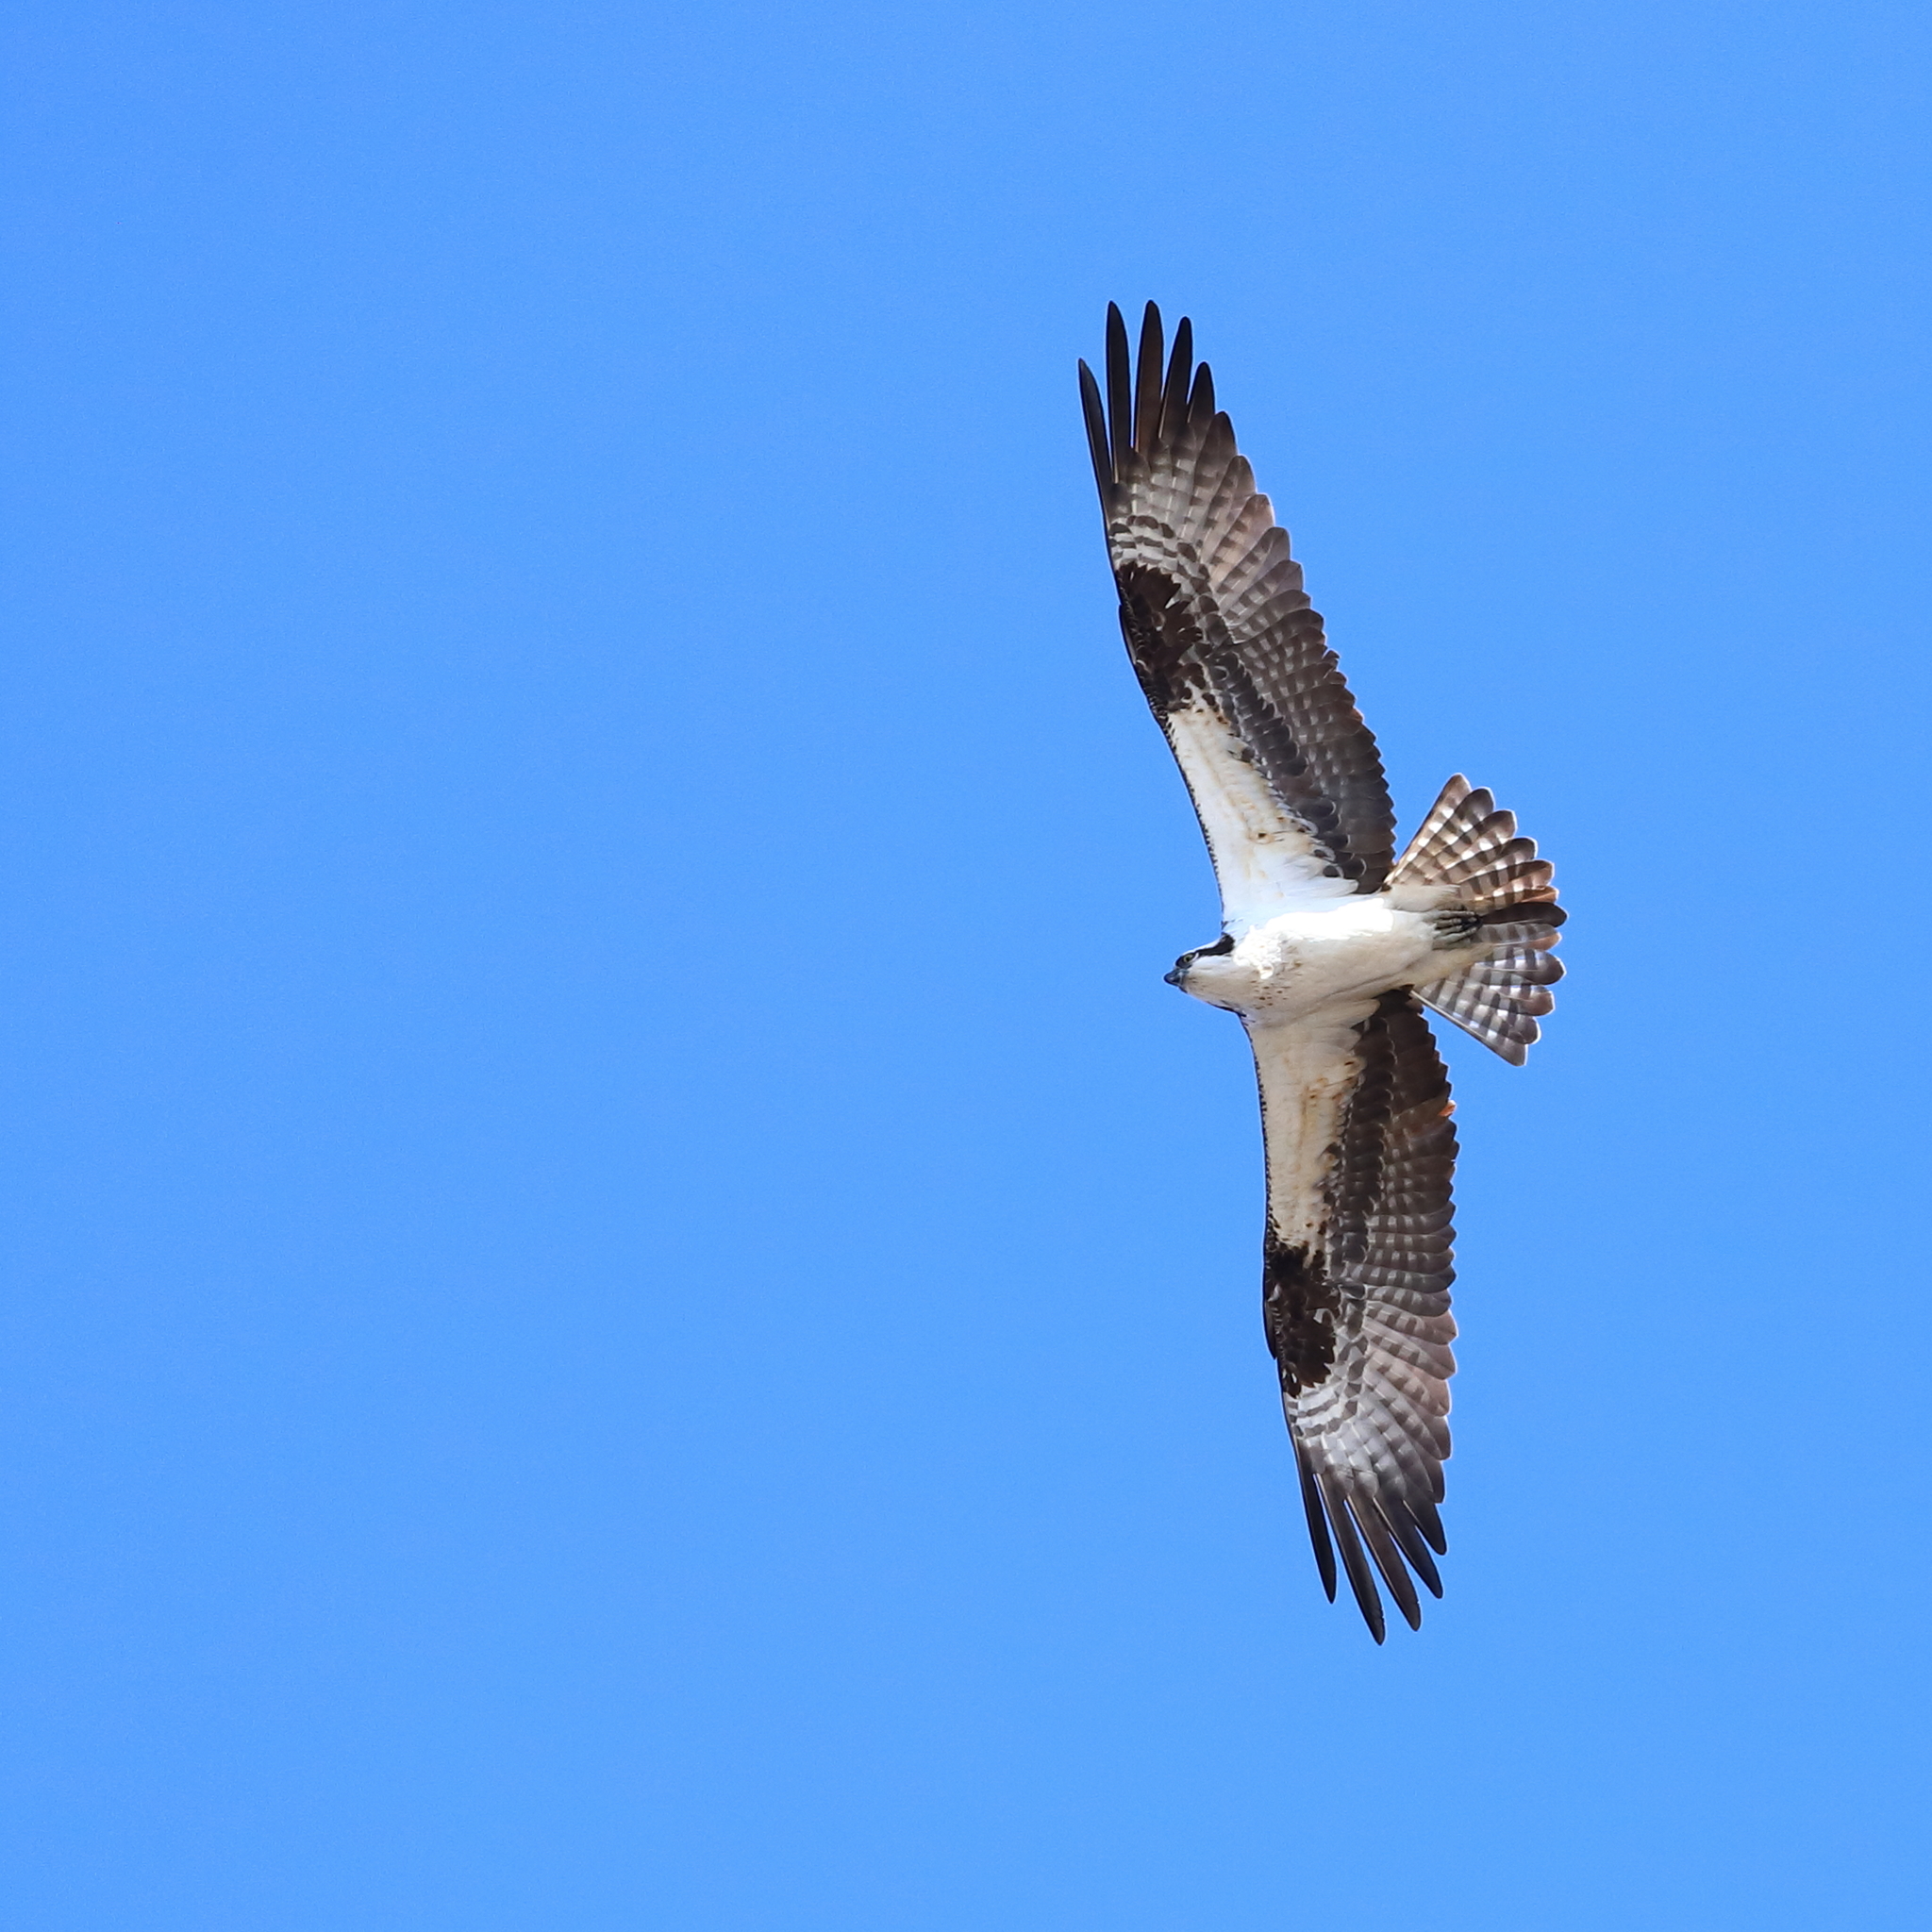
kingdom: Animalia
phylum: Chordata
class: Aves
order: Accipitriformes
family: Pandionidae
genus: Pandion
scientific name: Pandion haliaetus
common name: Osprey
